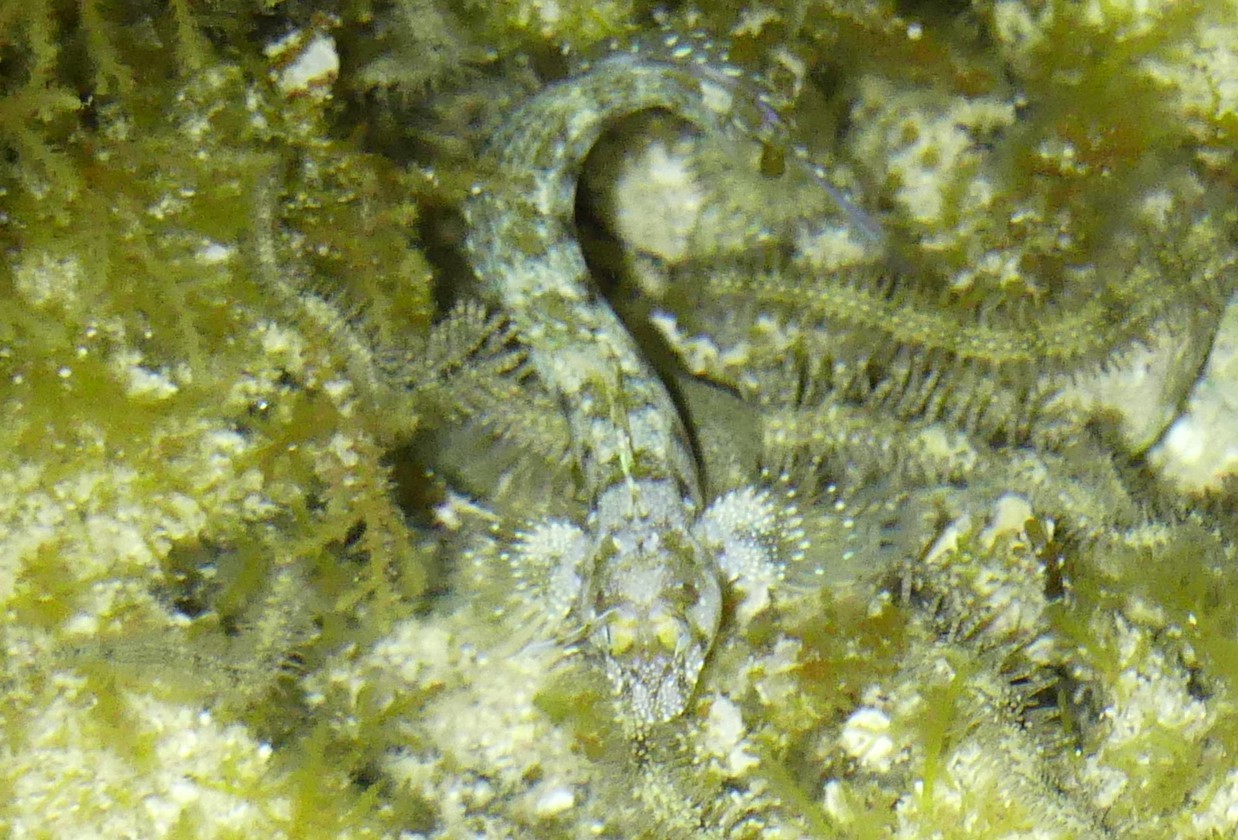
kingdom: Animalia
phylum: Chordata
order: Perciformes
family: Blenniidae
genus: Hirculops
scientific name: Hirculops cornifer
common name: Highbrow rockskipper
